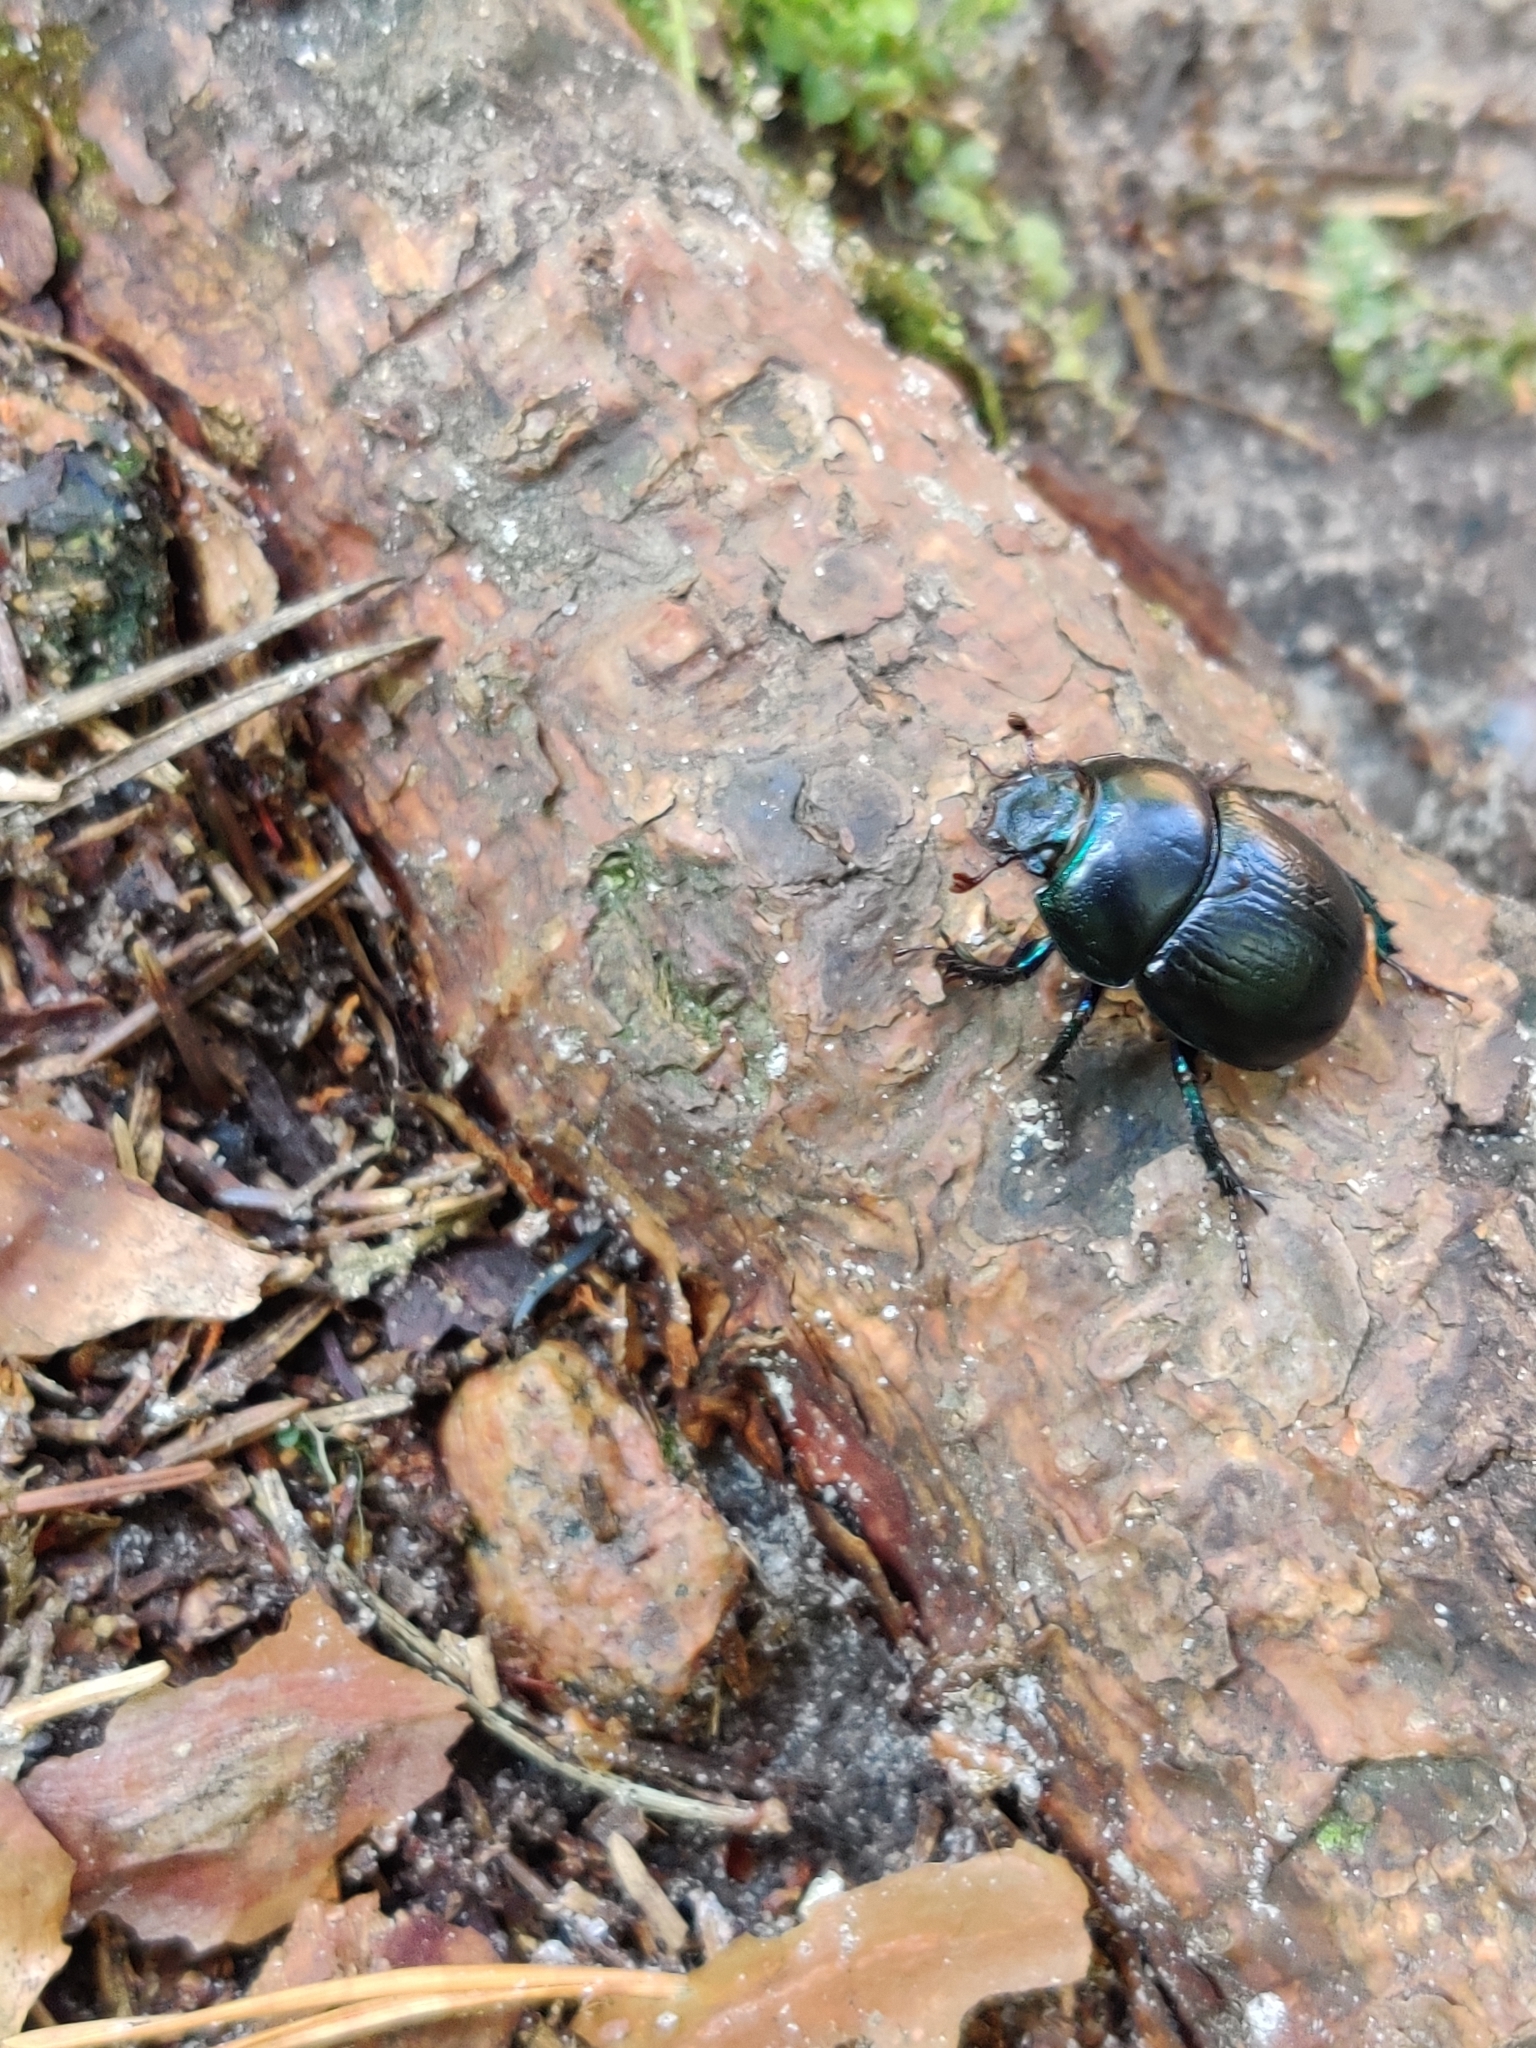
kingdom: Animalia
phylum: Arthropoda
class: Insecta
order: Coleoptera
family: Geotrupidae
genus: Anoplotrupes
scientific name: Anoplotrupes stercorosus
